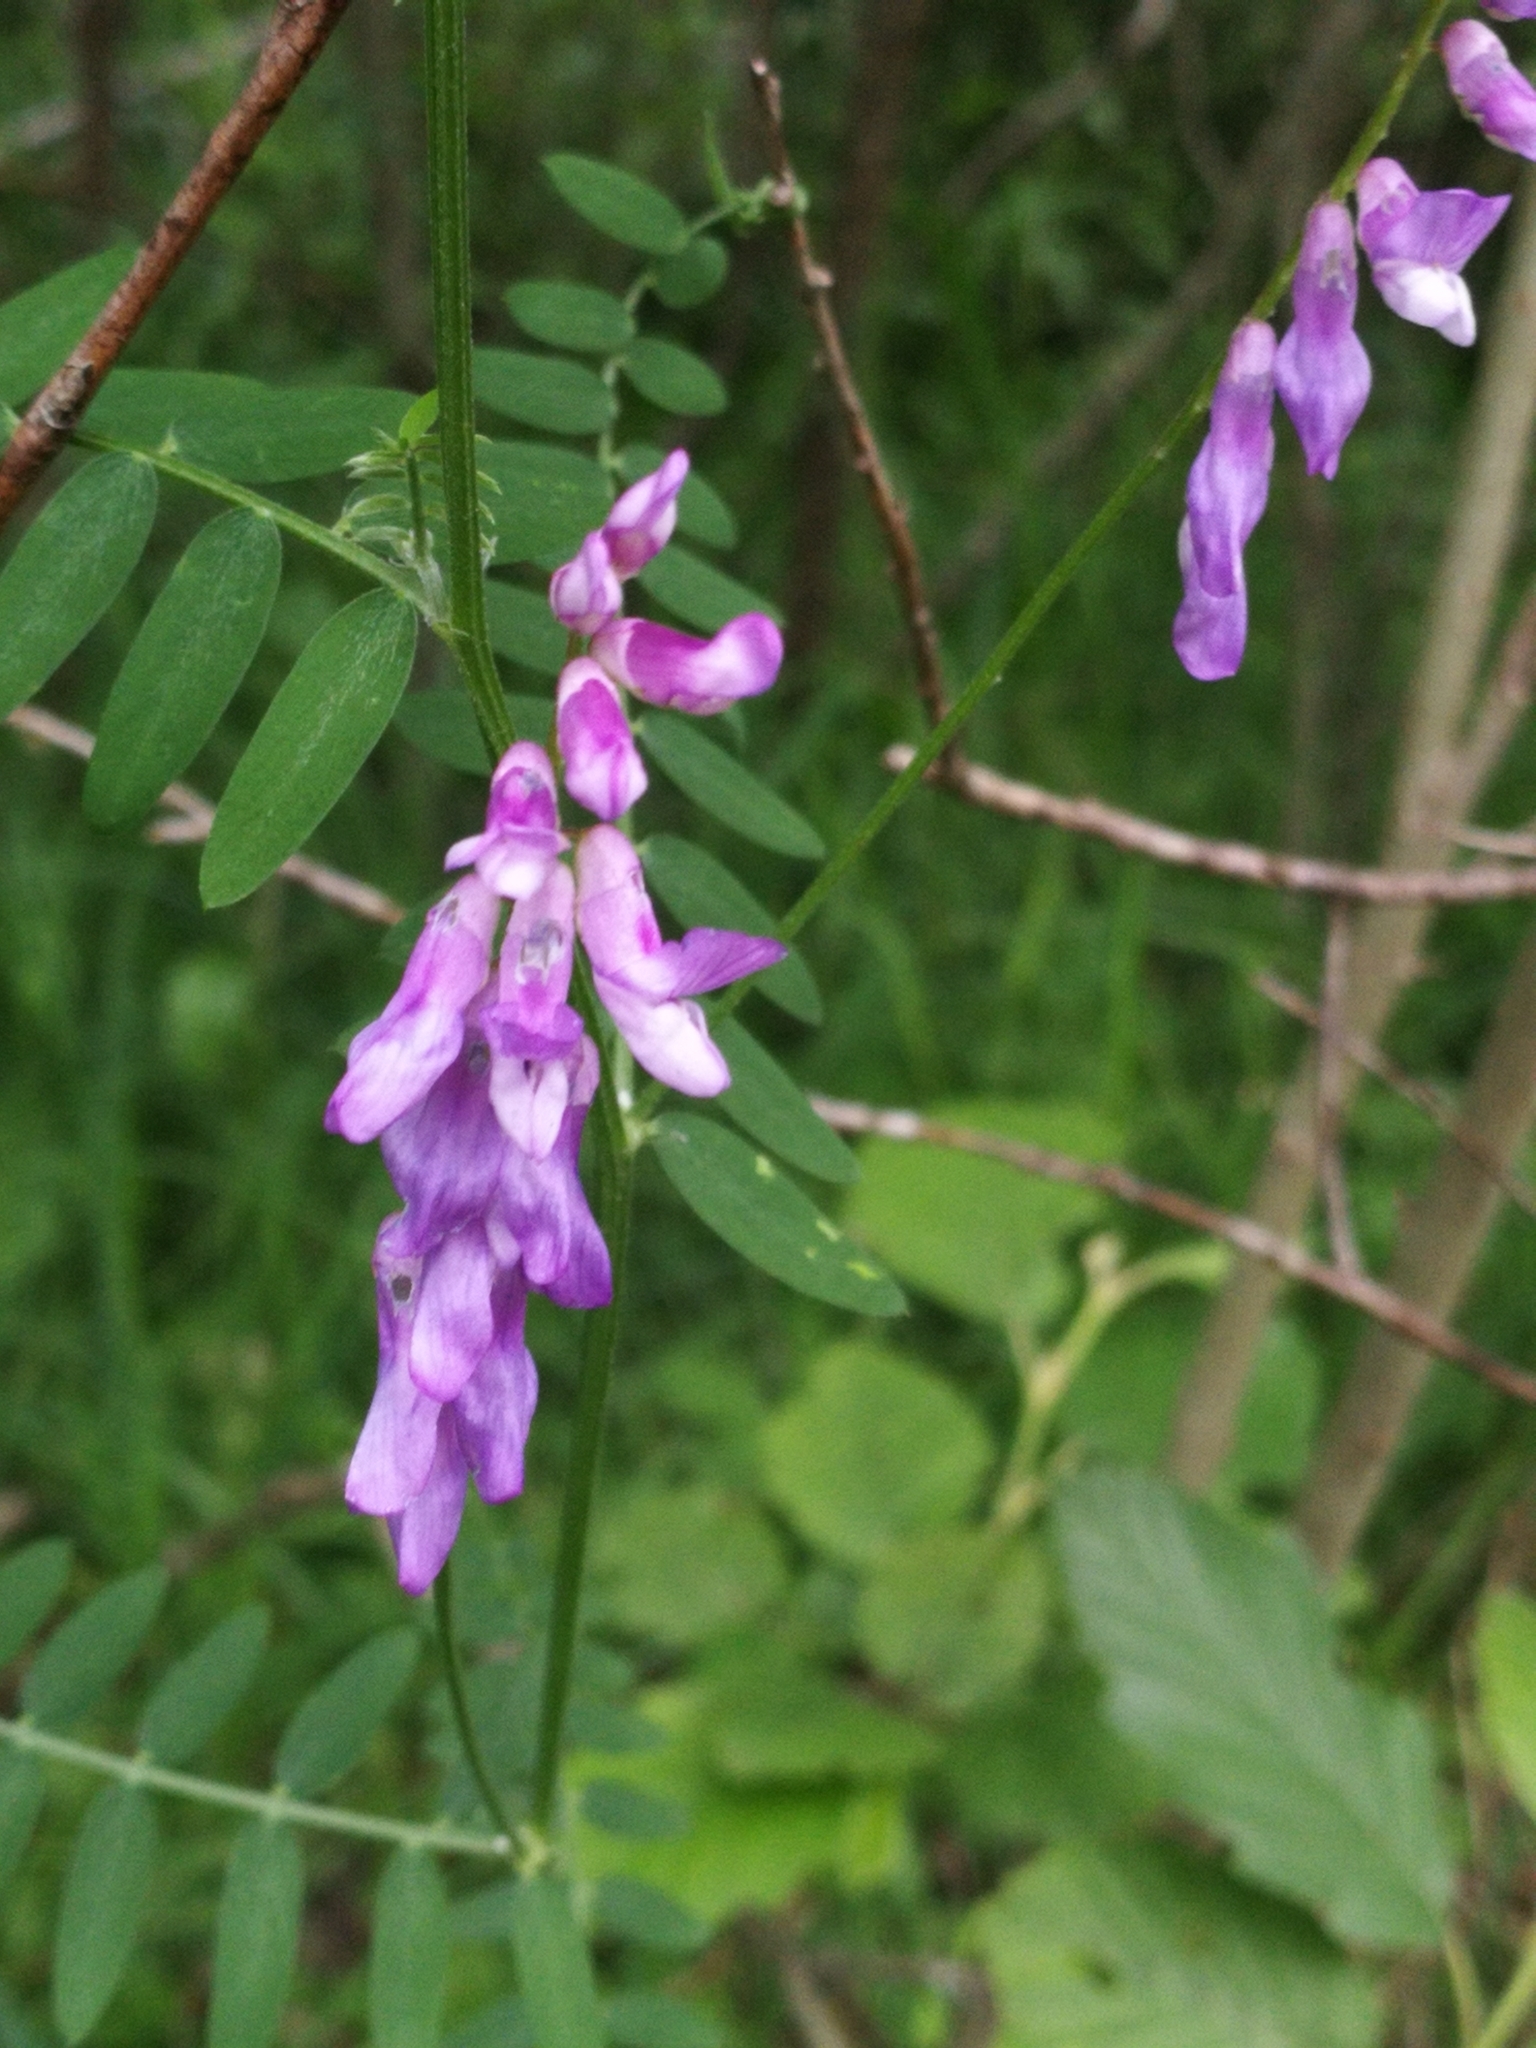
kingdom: Plantae
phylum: Tracheophyta
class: Magnoliopsida
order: Fabales
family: Fabaceae
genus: Vicia
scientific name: Vicia cracca
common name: Bird vetch
